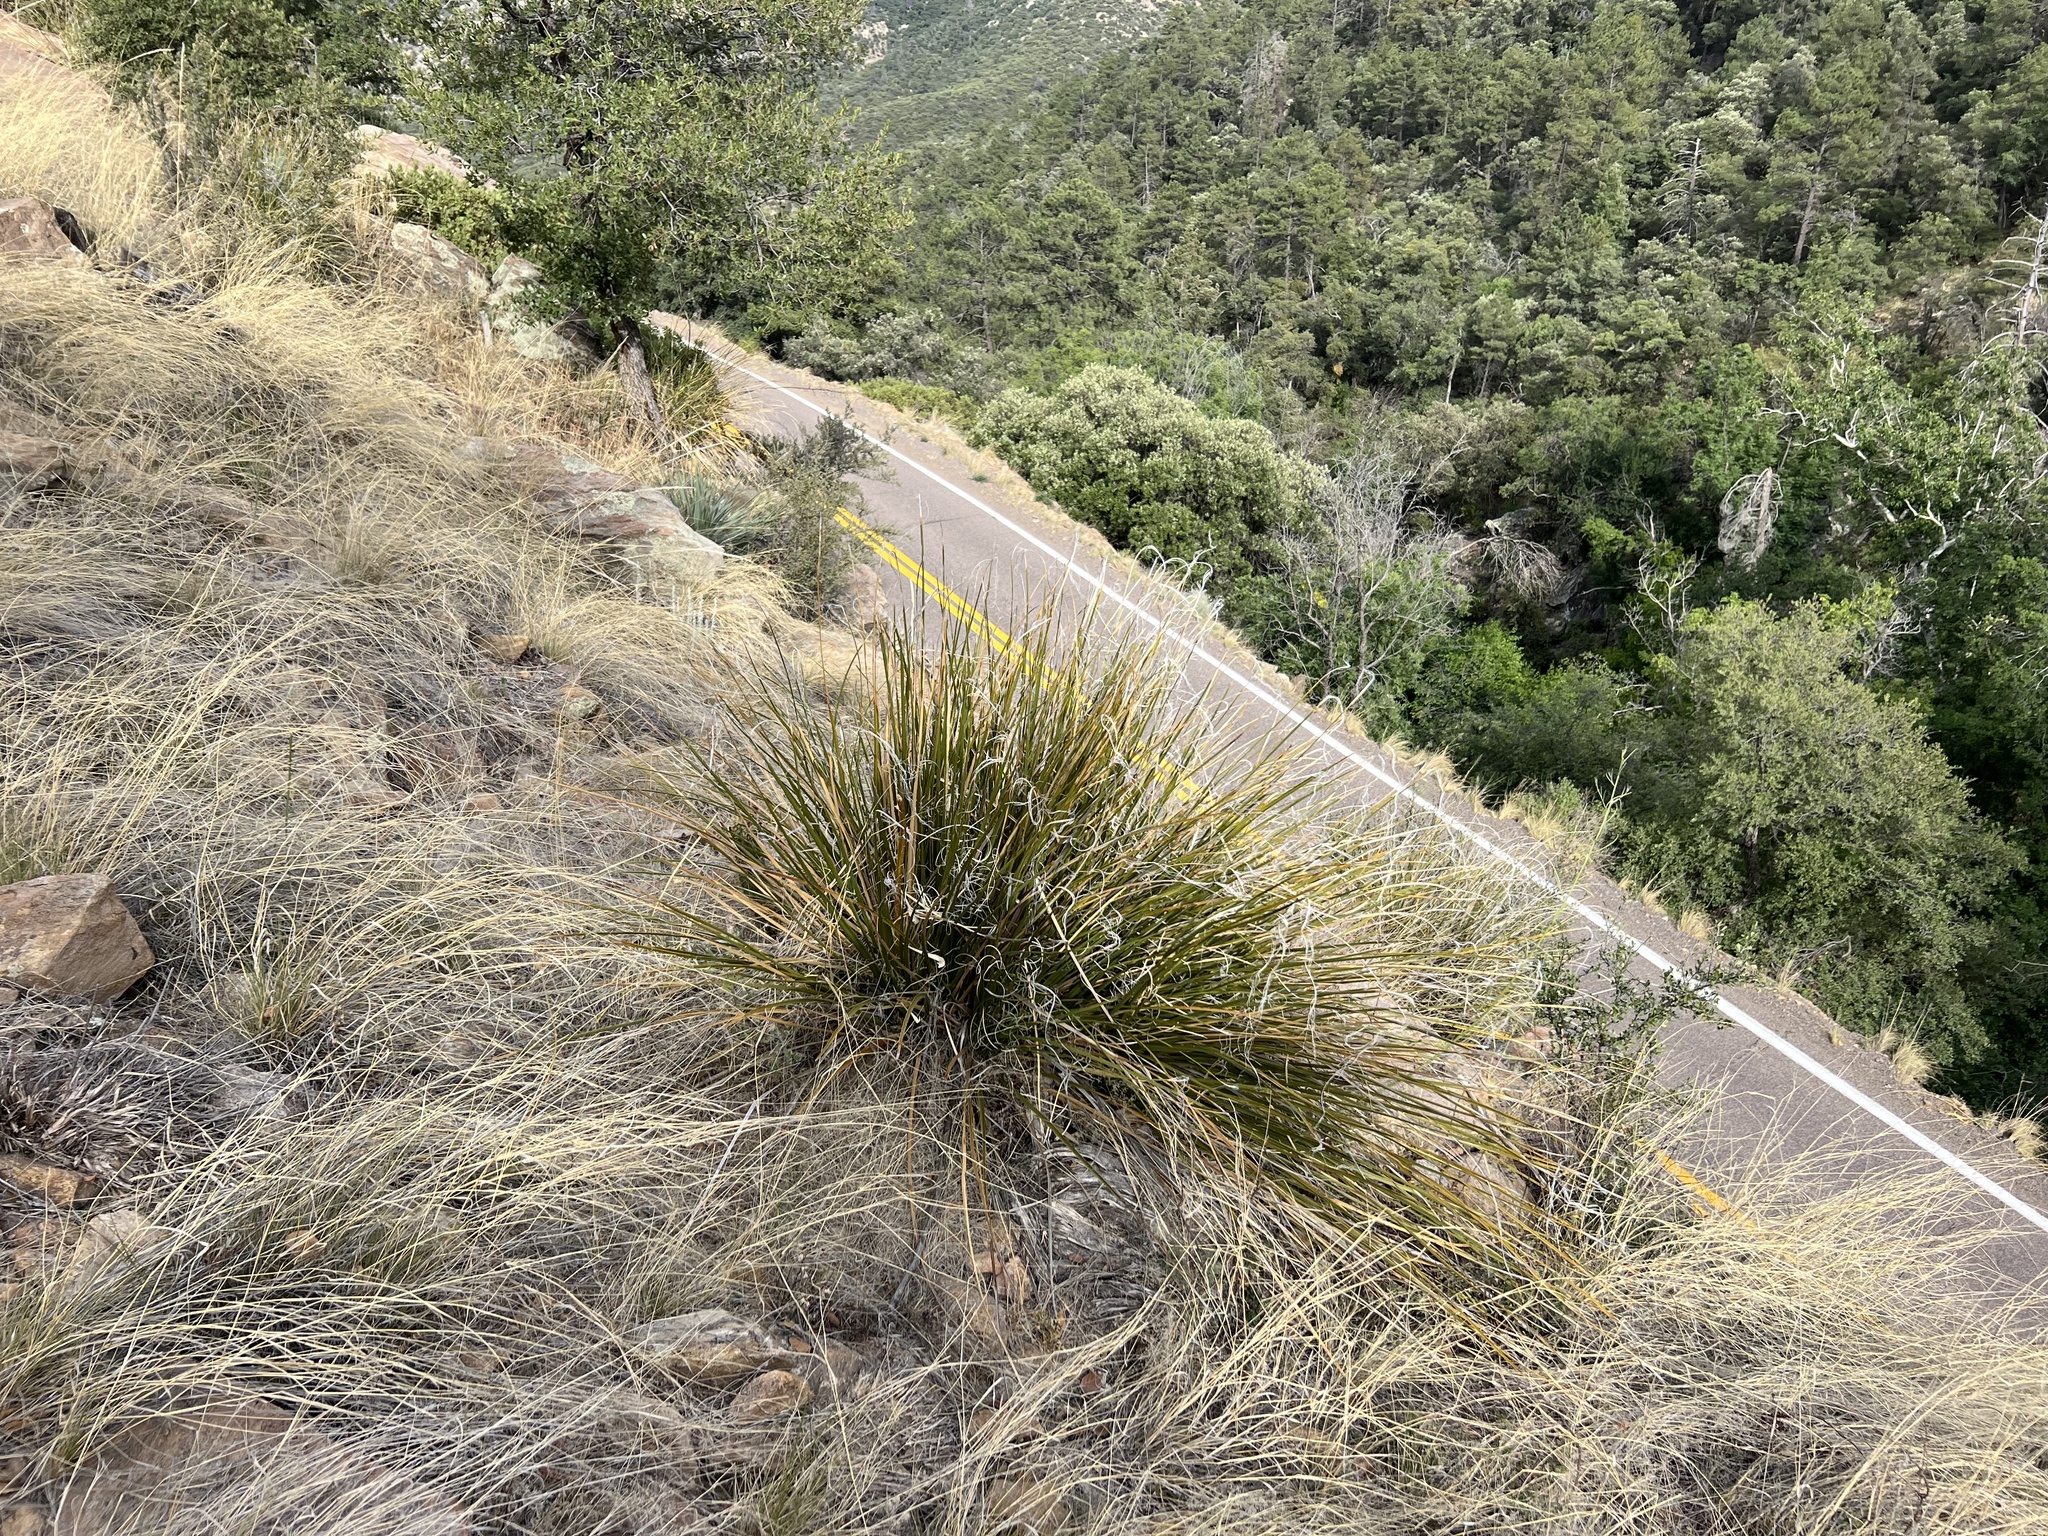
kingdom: Plantae
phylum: Tracheophyta
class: Liliopsida
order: Asparagales
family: Asparagaceae
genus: Nolina
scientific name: Nolina microcarpa
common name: Bear-grass
